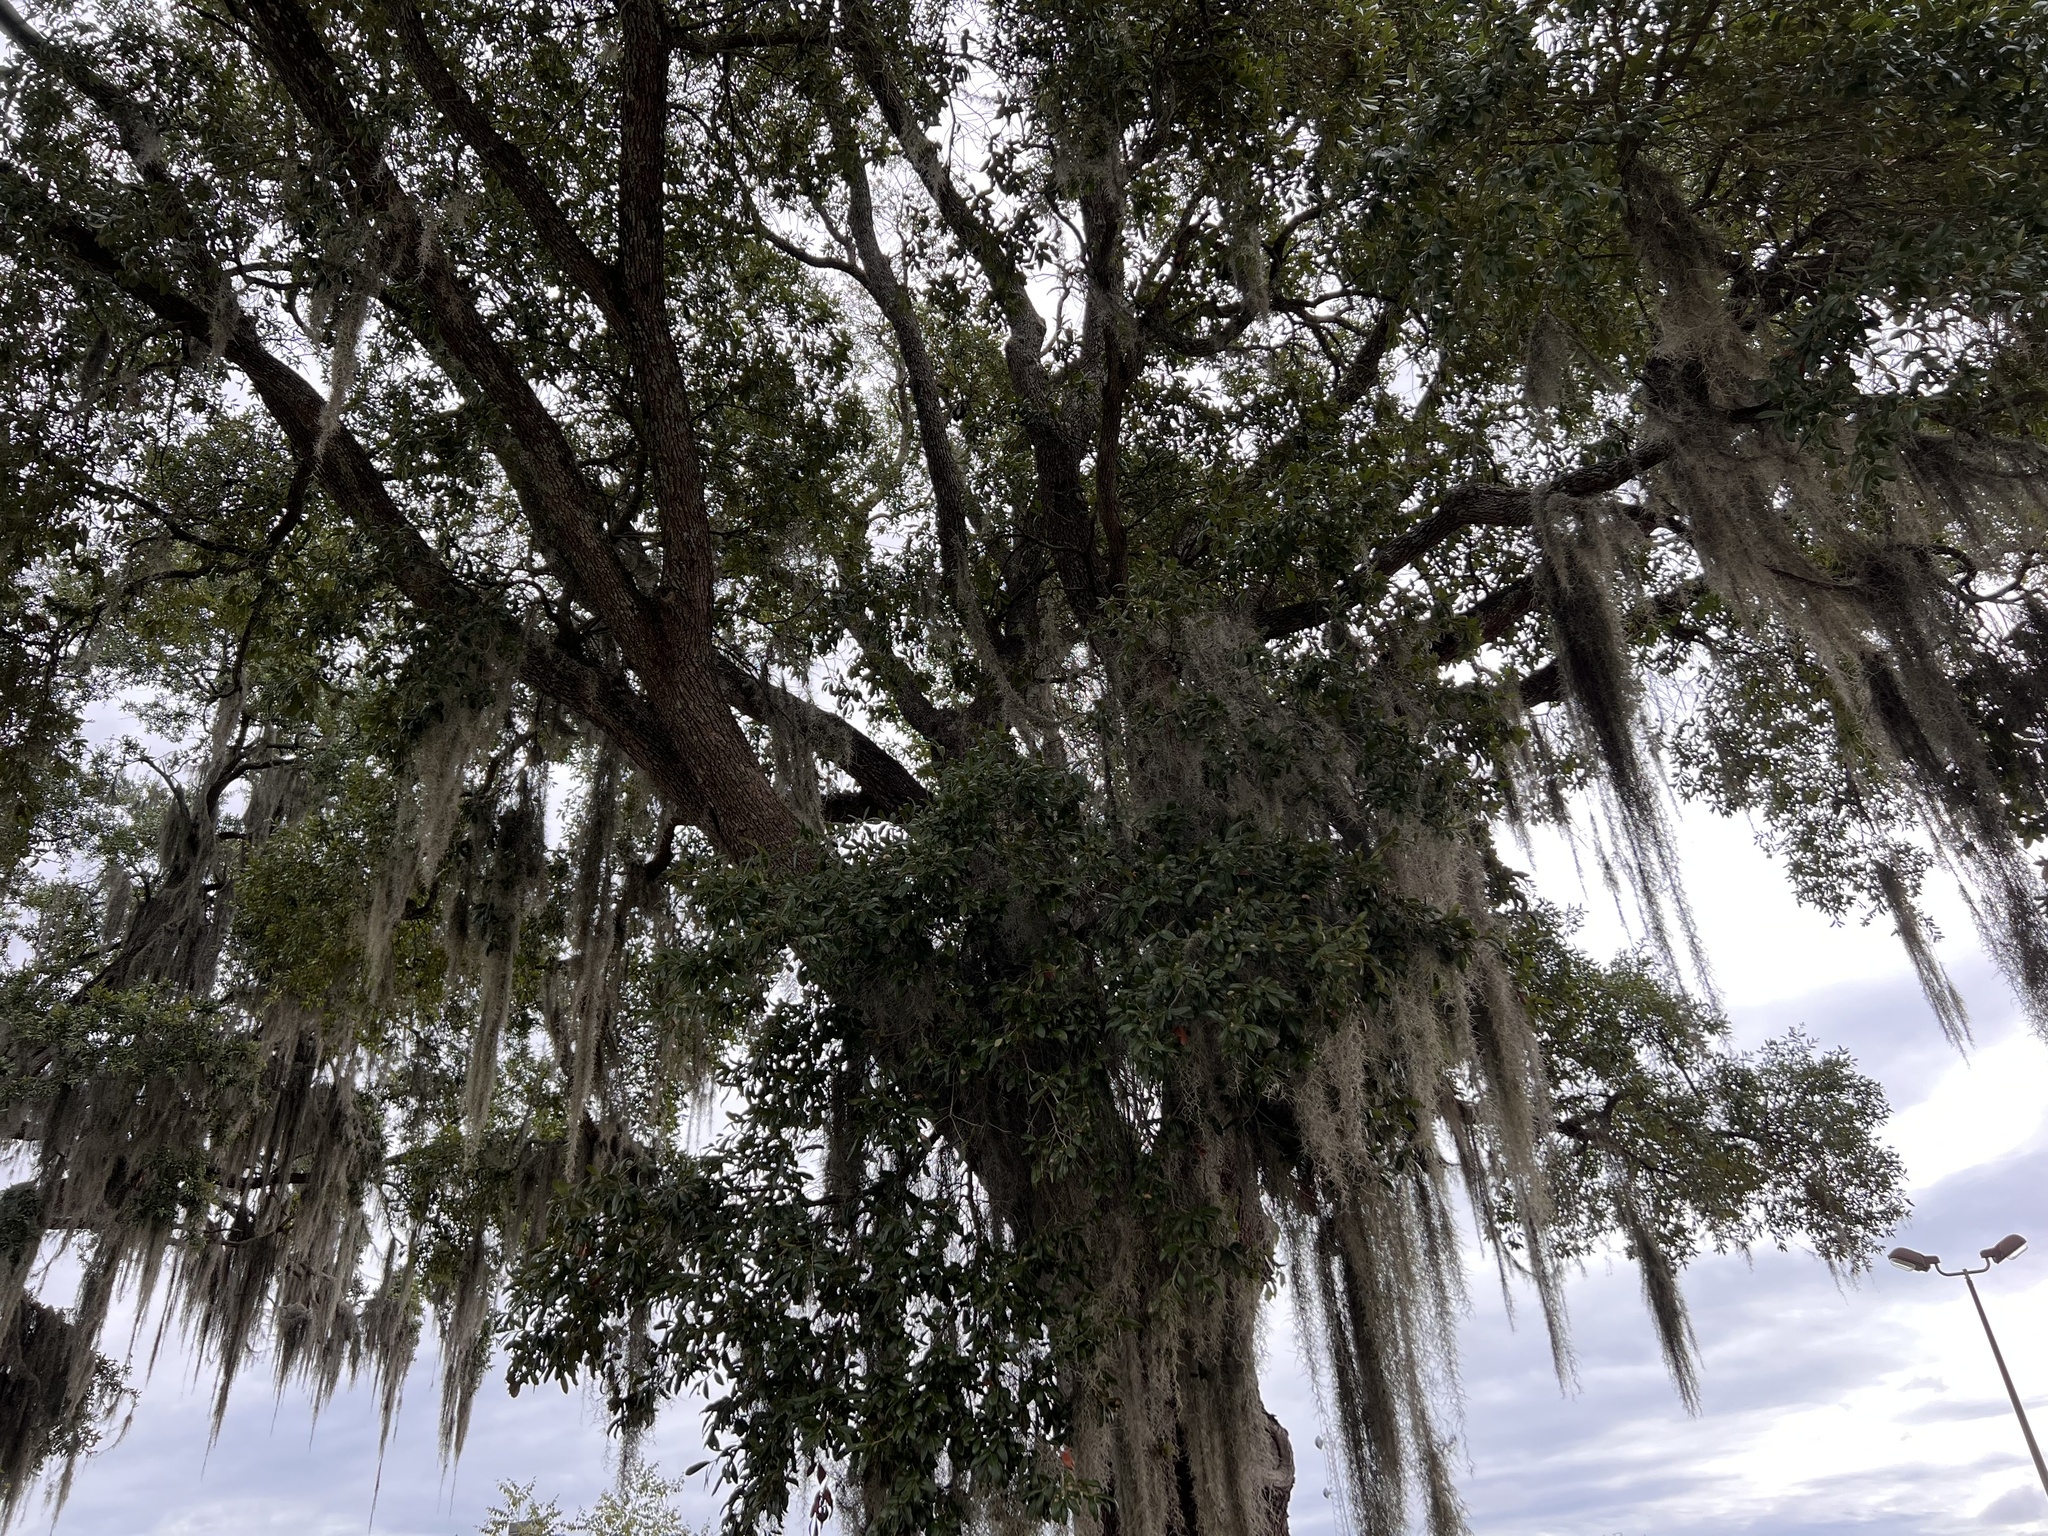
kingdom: Plantae
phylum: Tracheophyta
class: Liliopsida
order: Poales
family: Bromeliaceae
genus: Tillandsia
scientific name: Tillandsia usneoides
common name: Spanish moss
